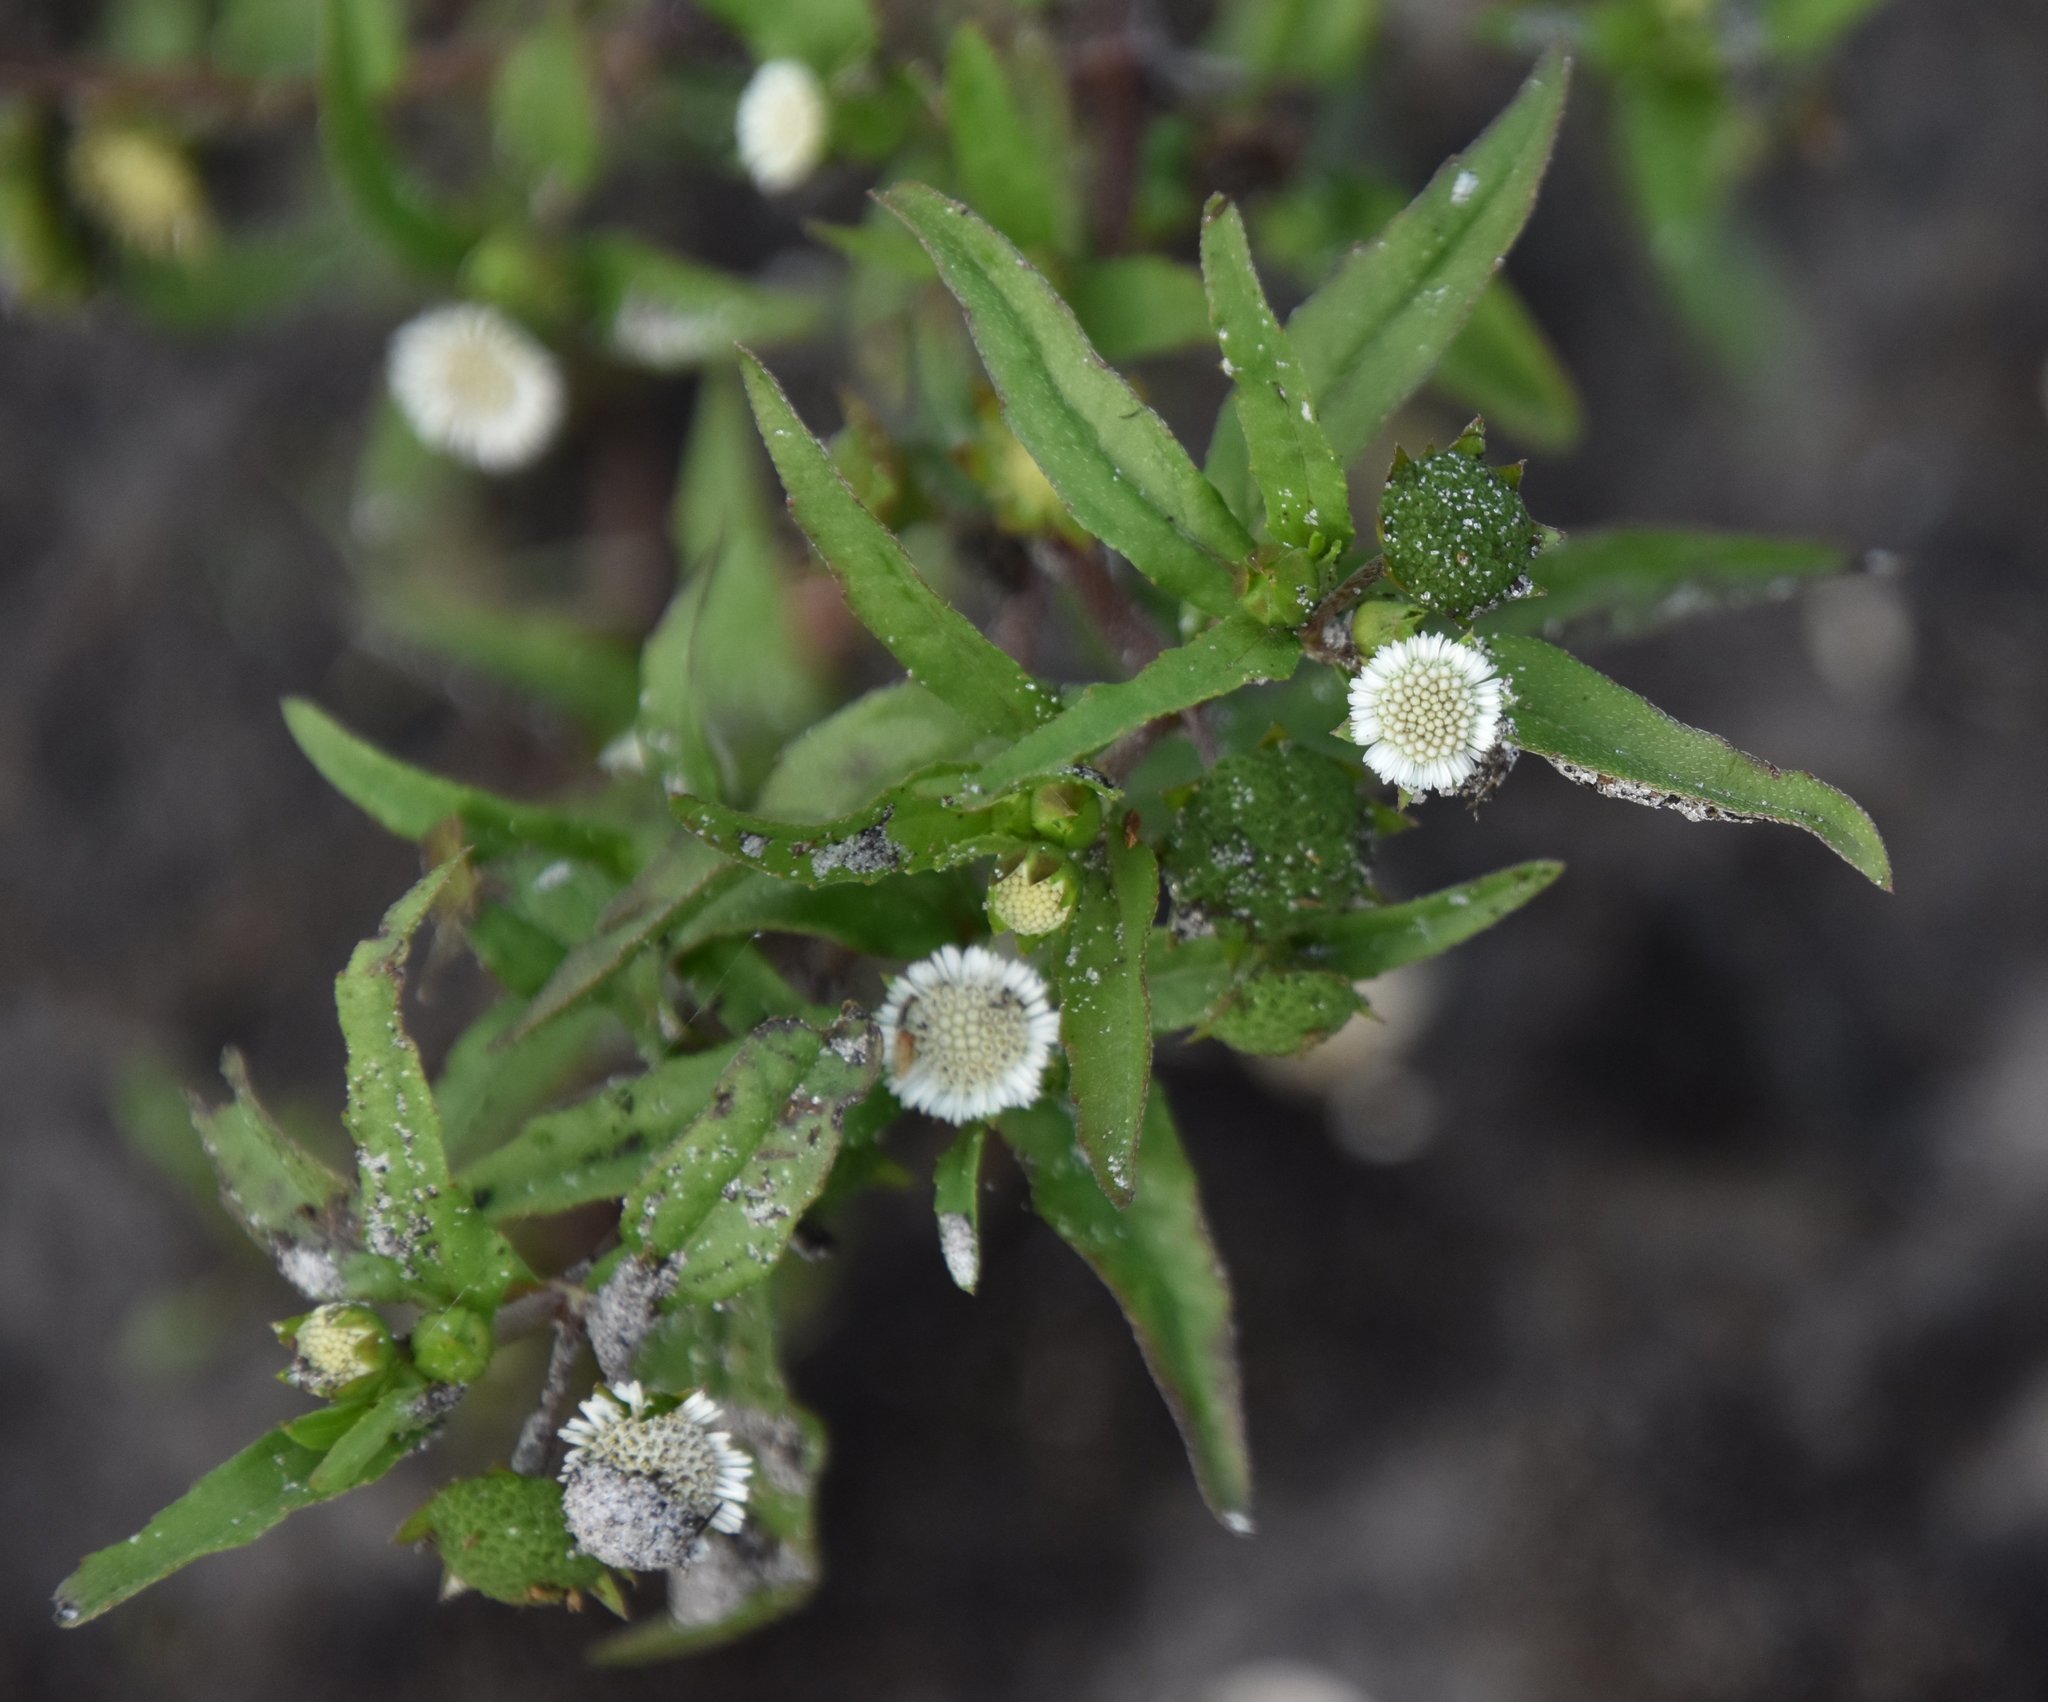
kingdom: Plantae
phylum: Tracheophyta
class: Magnoliopsida
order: Asterales
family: Asteraceae
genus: Eclipta
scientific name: Eclipta prostrata
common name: False daisy
